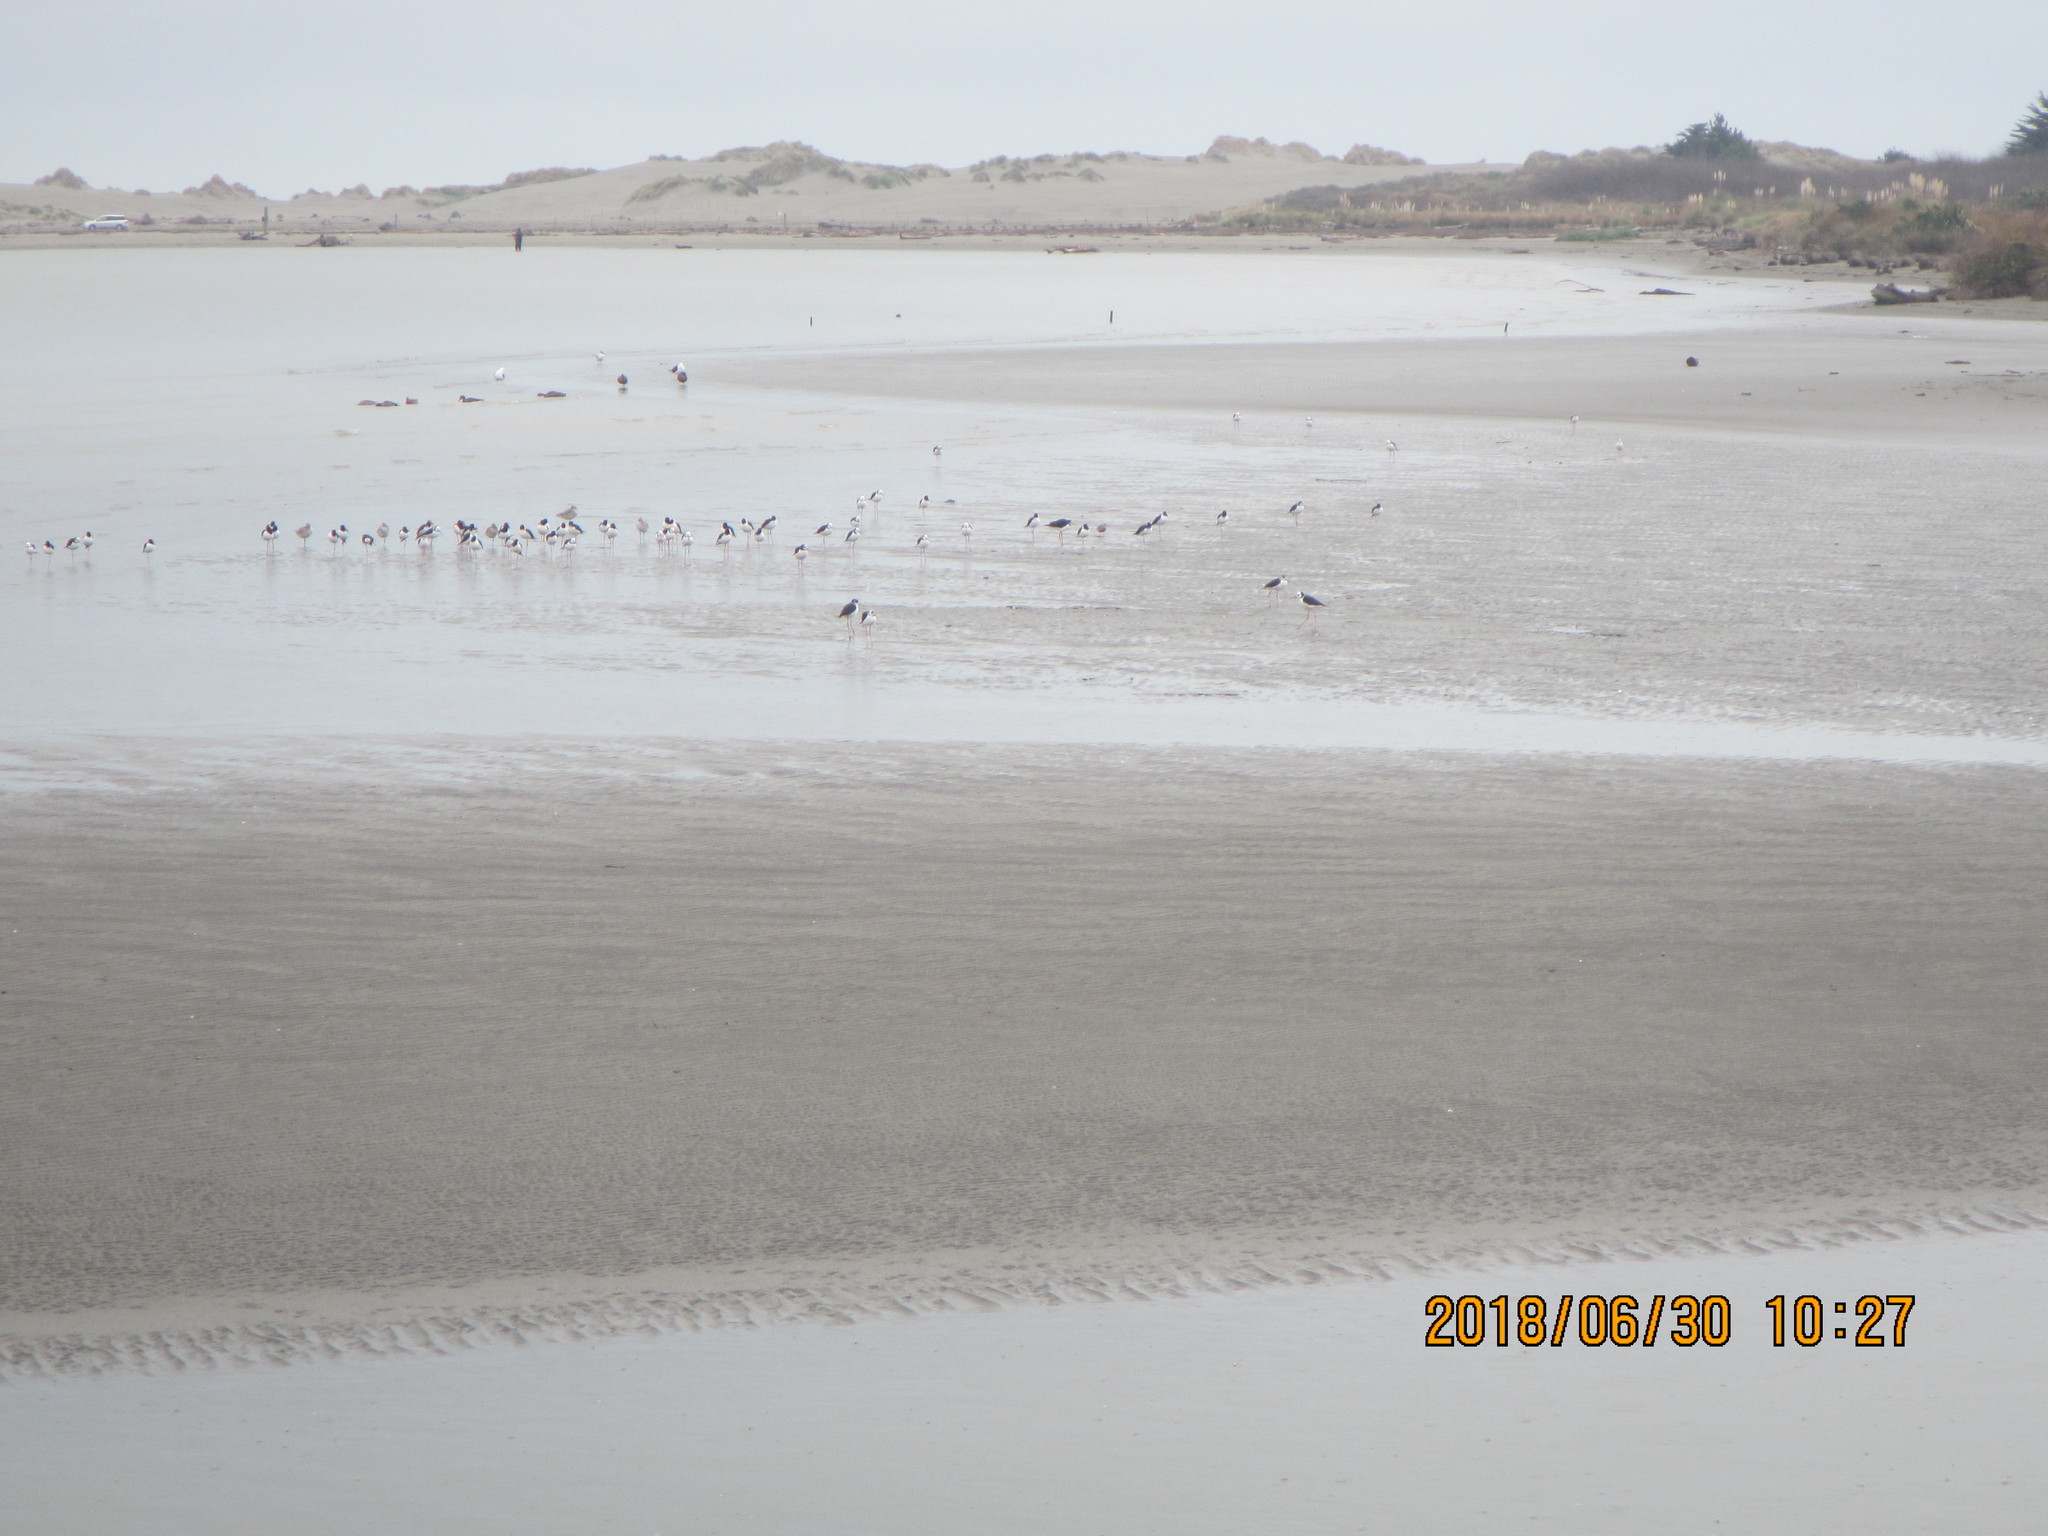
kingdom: Animalia
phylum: Chordata
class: Aves
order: Charadriiformes
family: Recurvirostridae
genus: Himantopus
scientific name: Himantopus leucocephalus
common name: White-headed stilt
